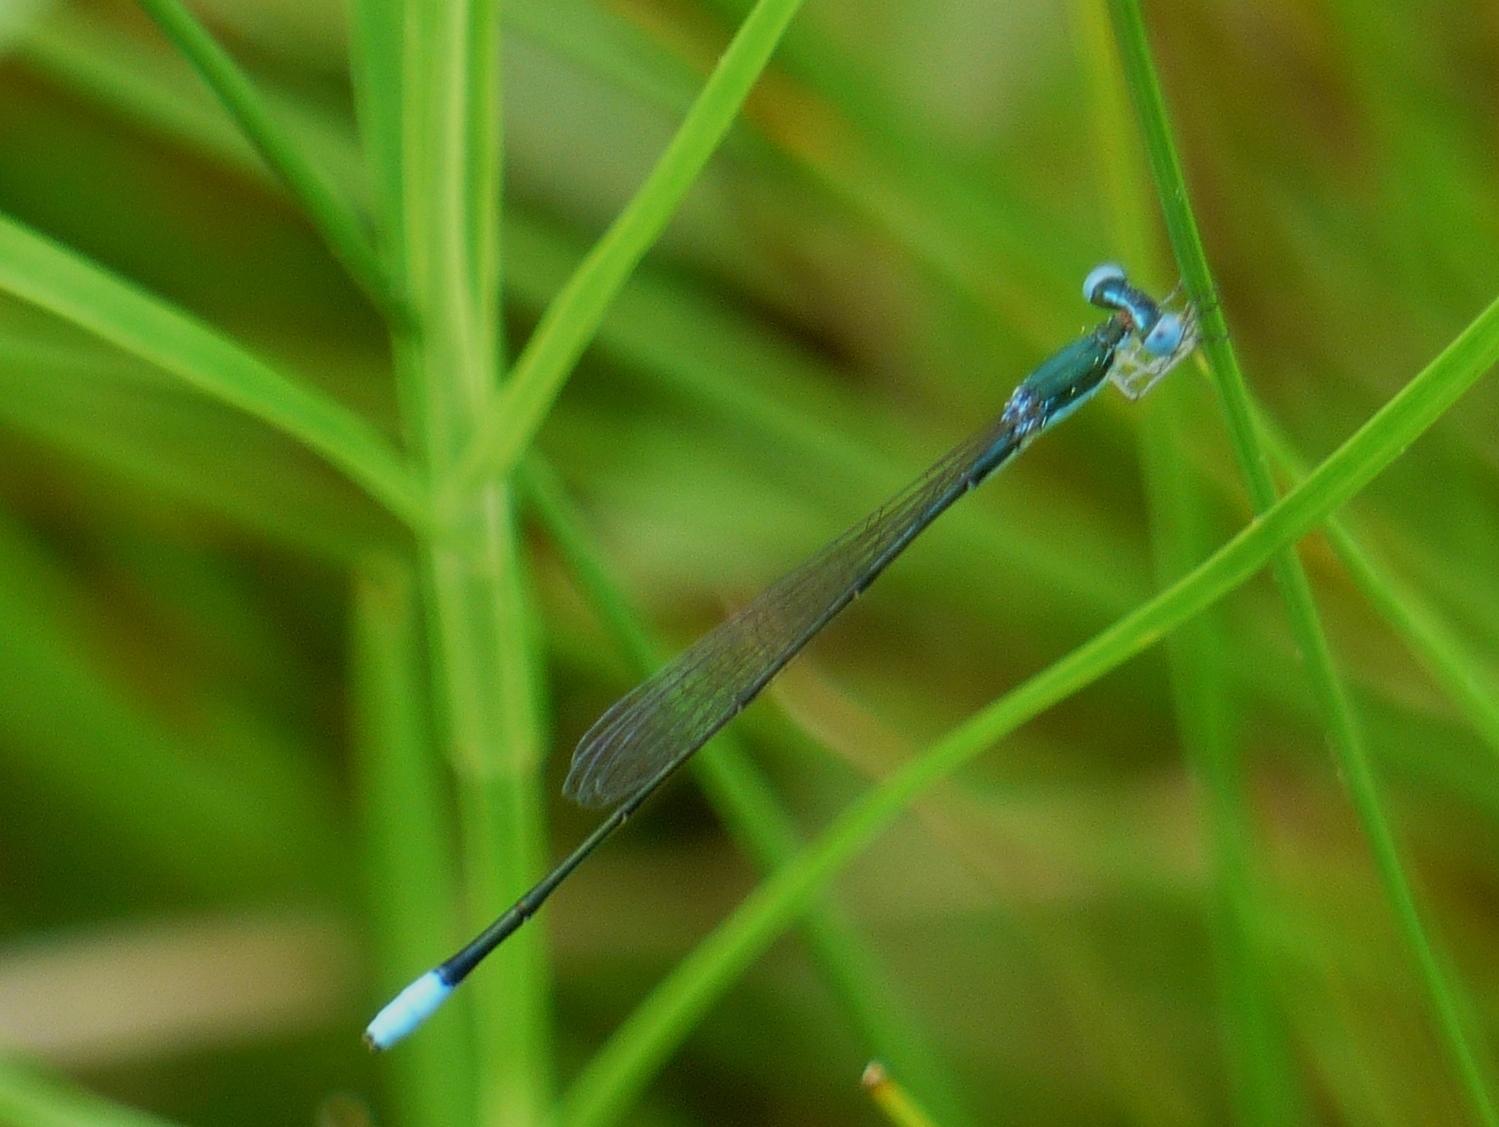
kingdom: Animalia
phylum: Arthropoda
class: Insecta
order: Odonata
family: Coenagrionidae
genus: Nehalennia
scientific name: Nehalennia gracilis
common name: Sphagnum sprite
